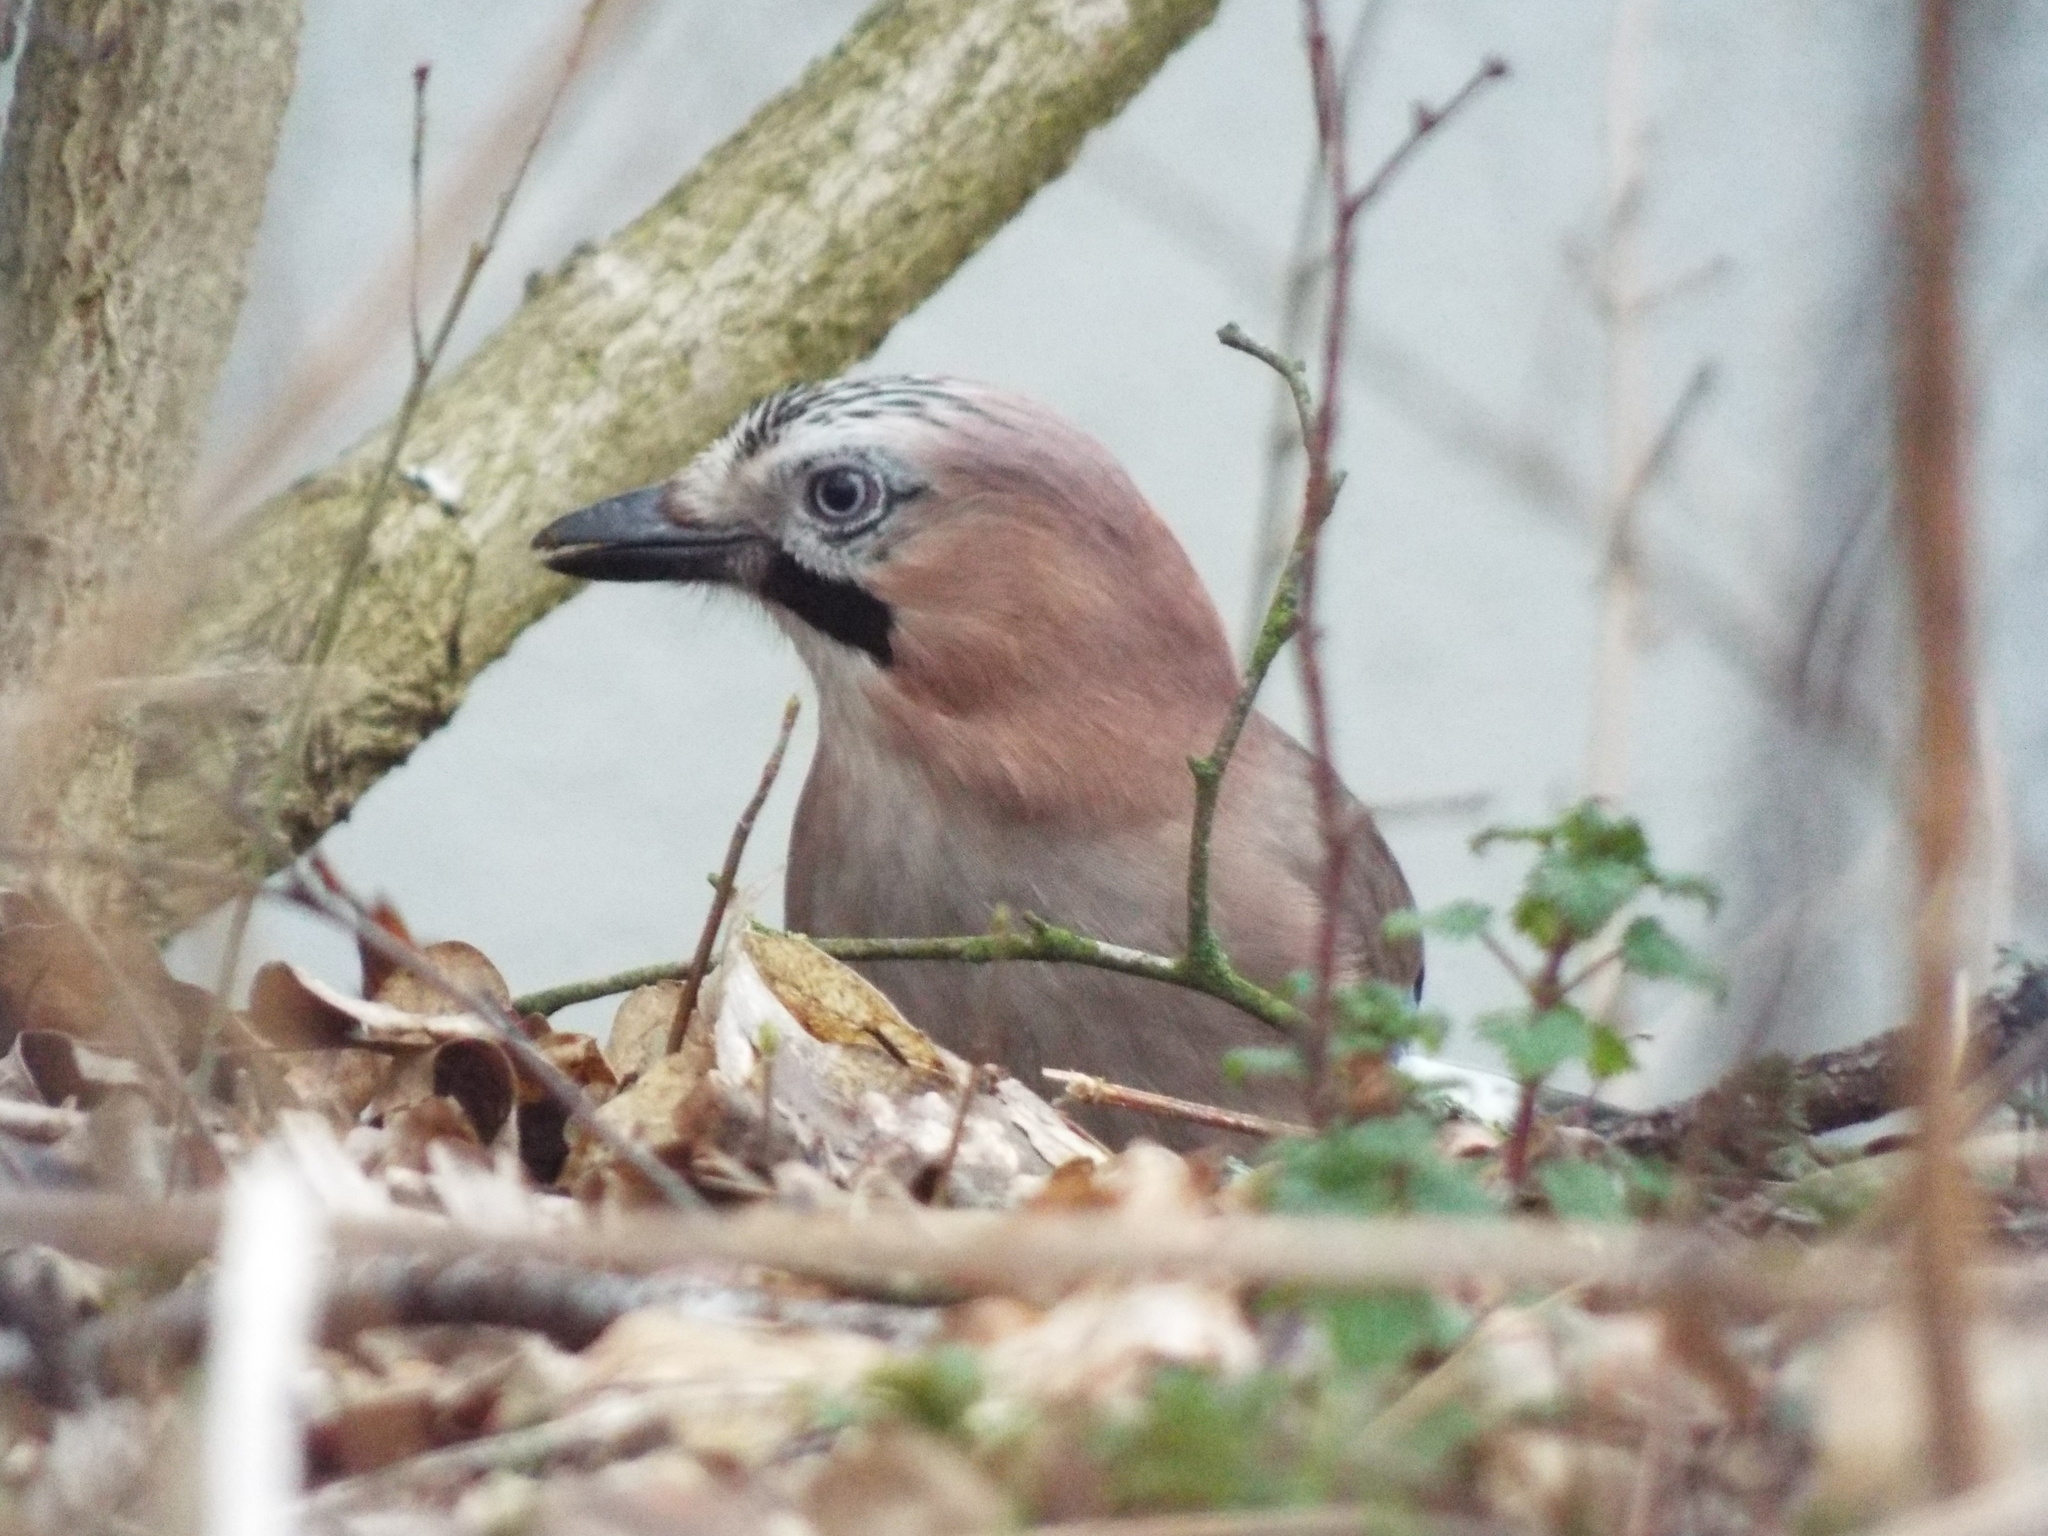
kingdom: Animalia
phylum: Chordata
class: Aves
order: Passeriformes
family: Corvidae
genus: Garrulus
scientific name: Garrulus glandarius
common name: Eurasian jay
